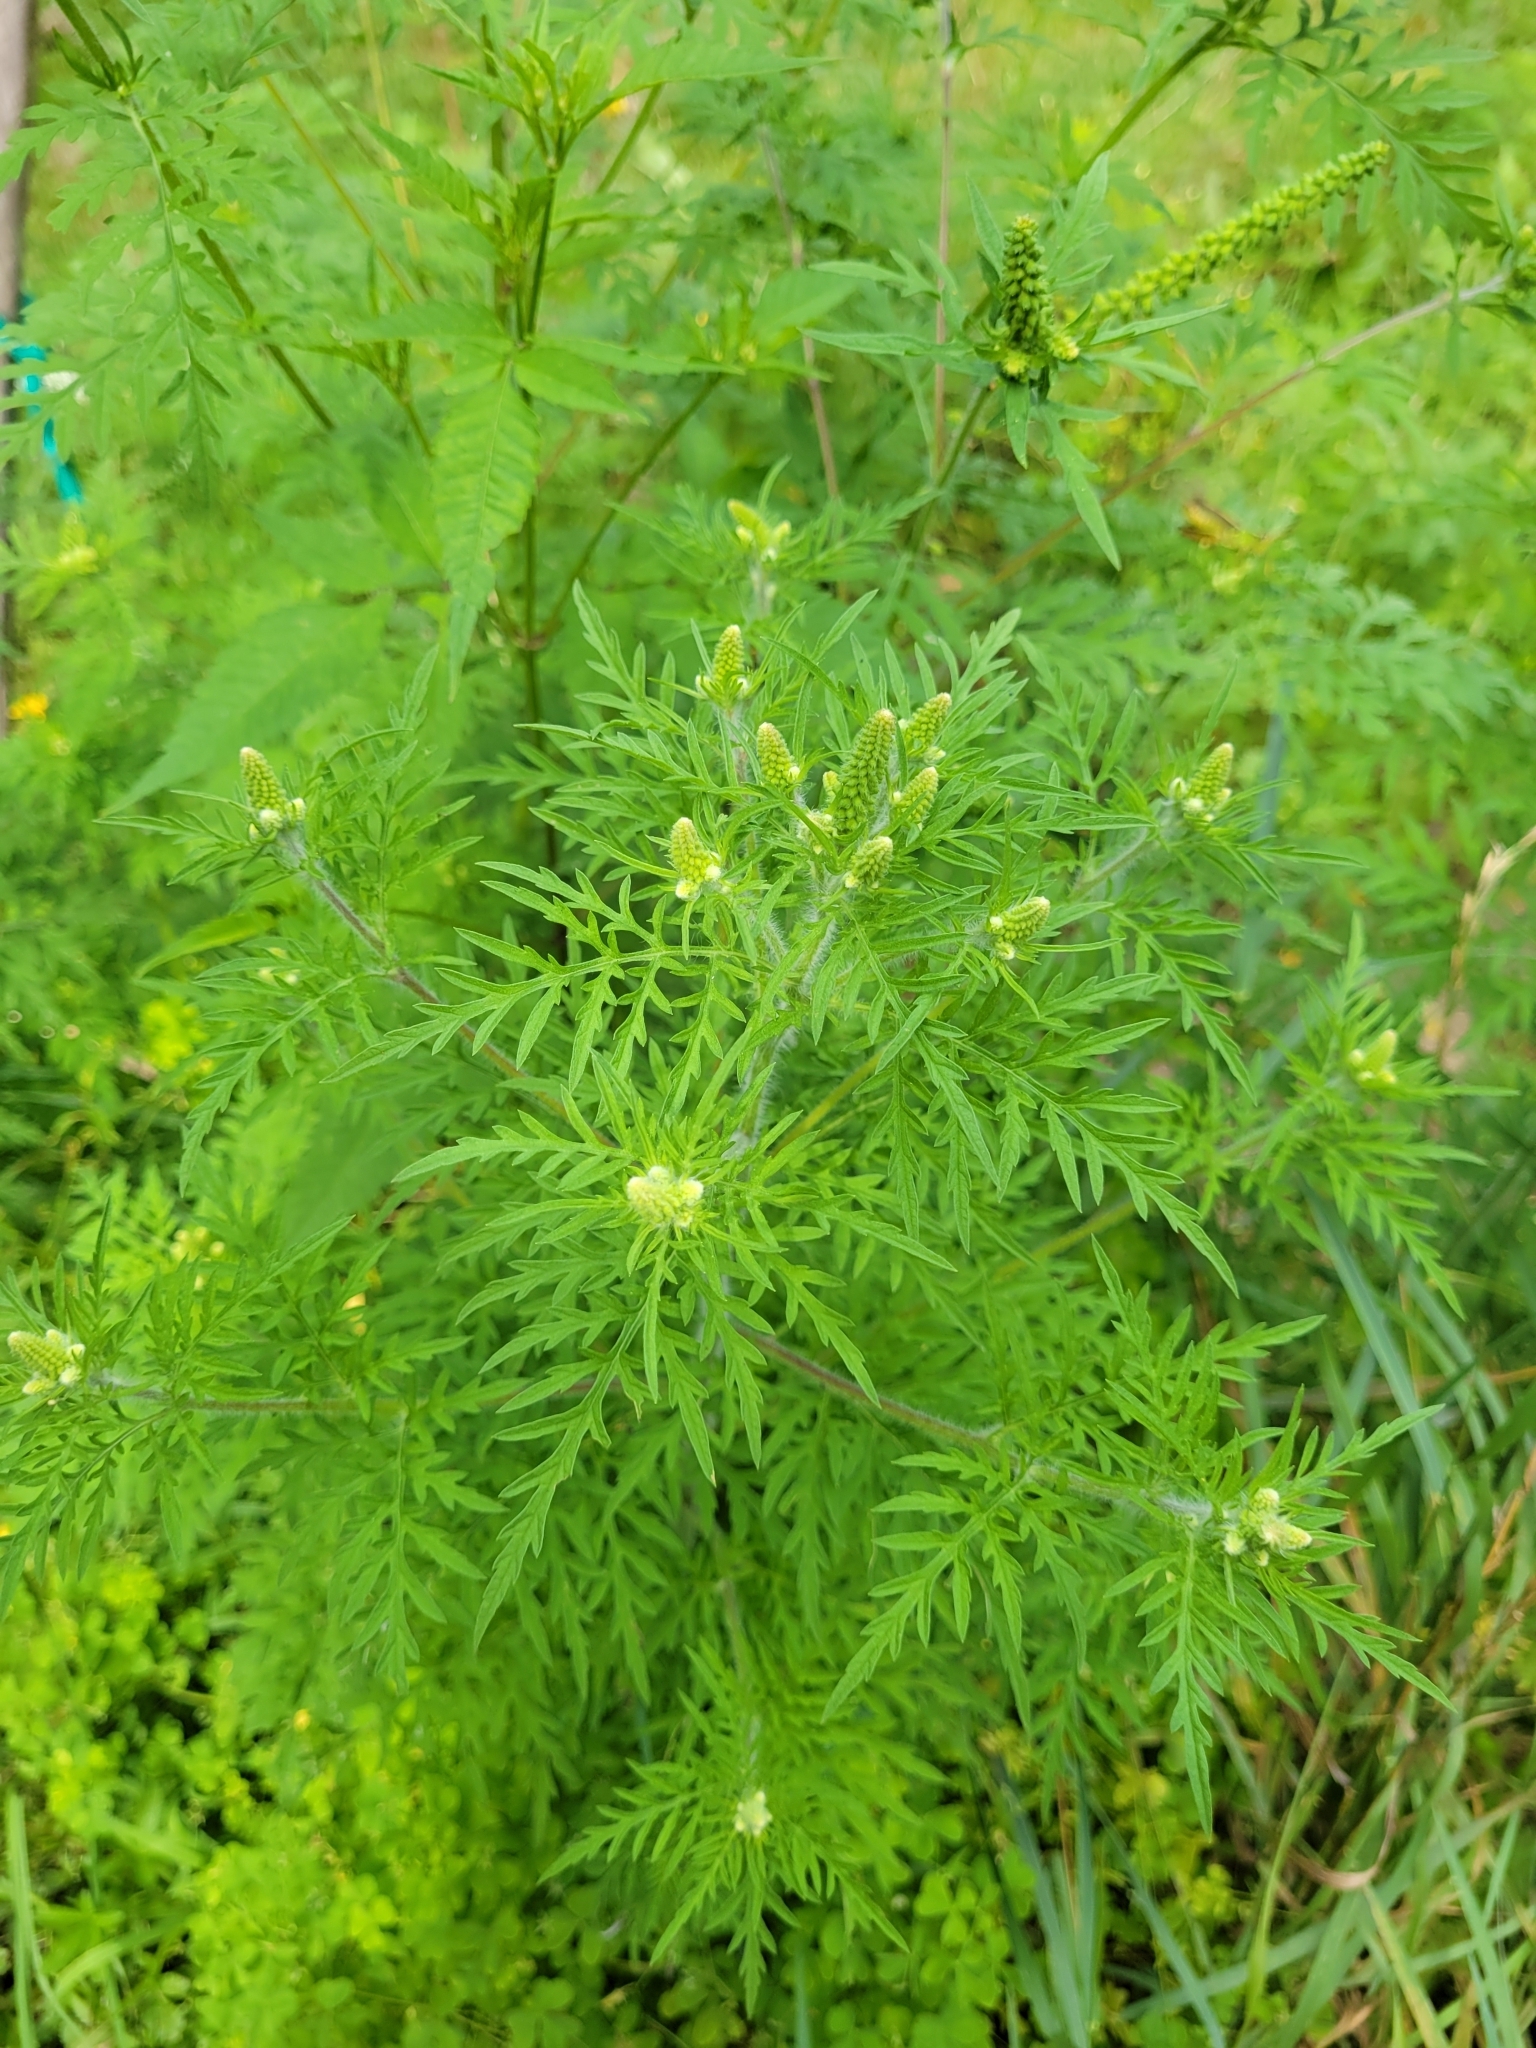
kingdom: Plantae
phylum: Tracheophyta
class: Magnoliopsida
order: Asterales
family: Asteraceae
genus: Ambrosia
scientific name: Ambrosia artemisiifolia
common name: Annual ragweed
